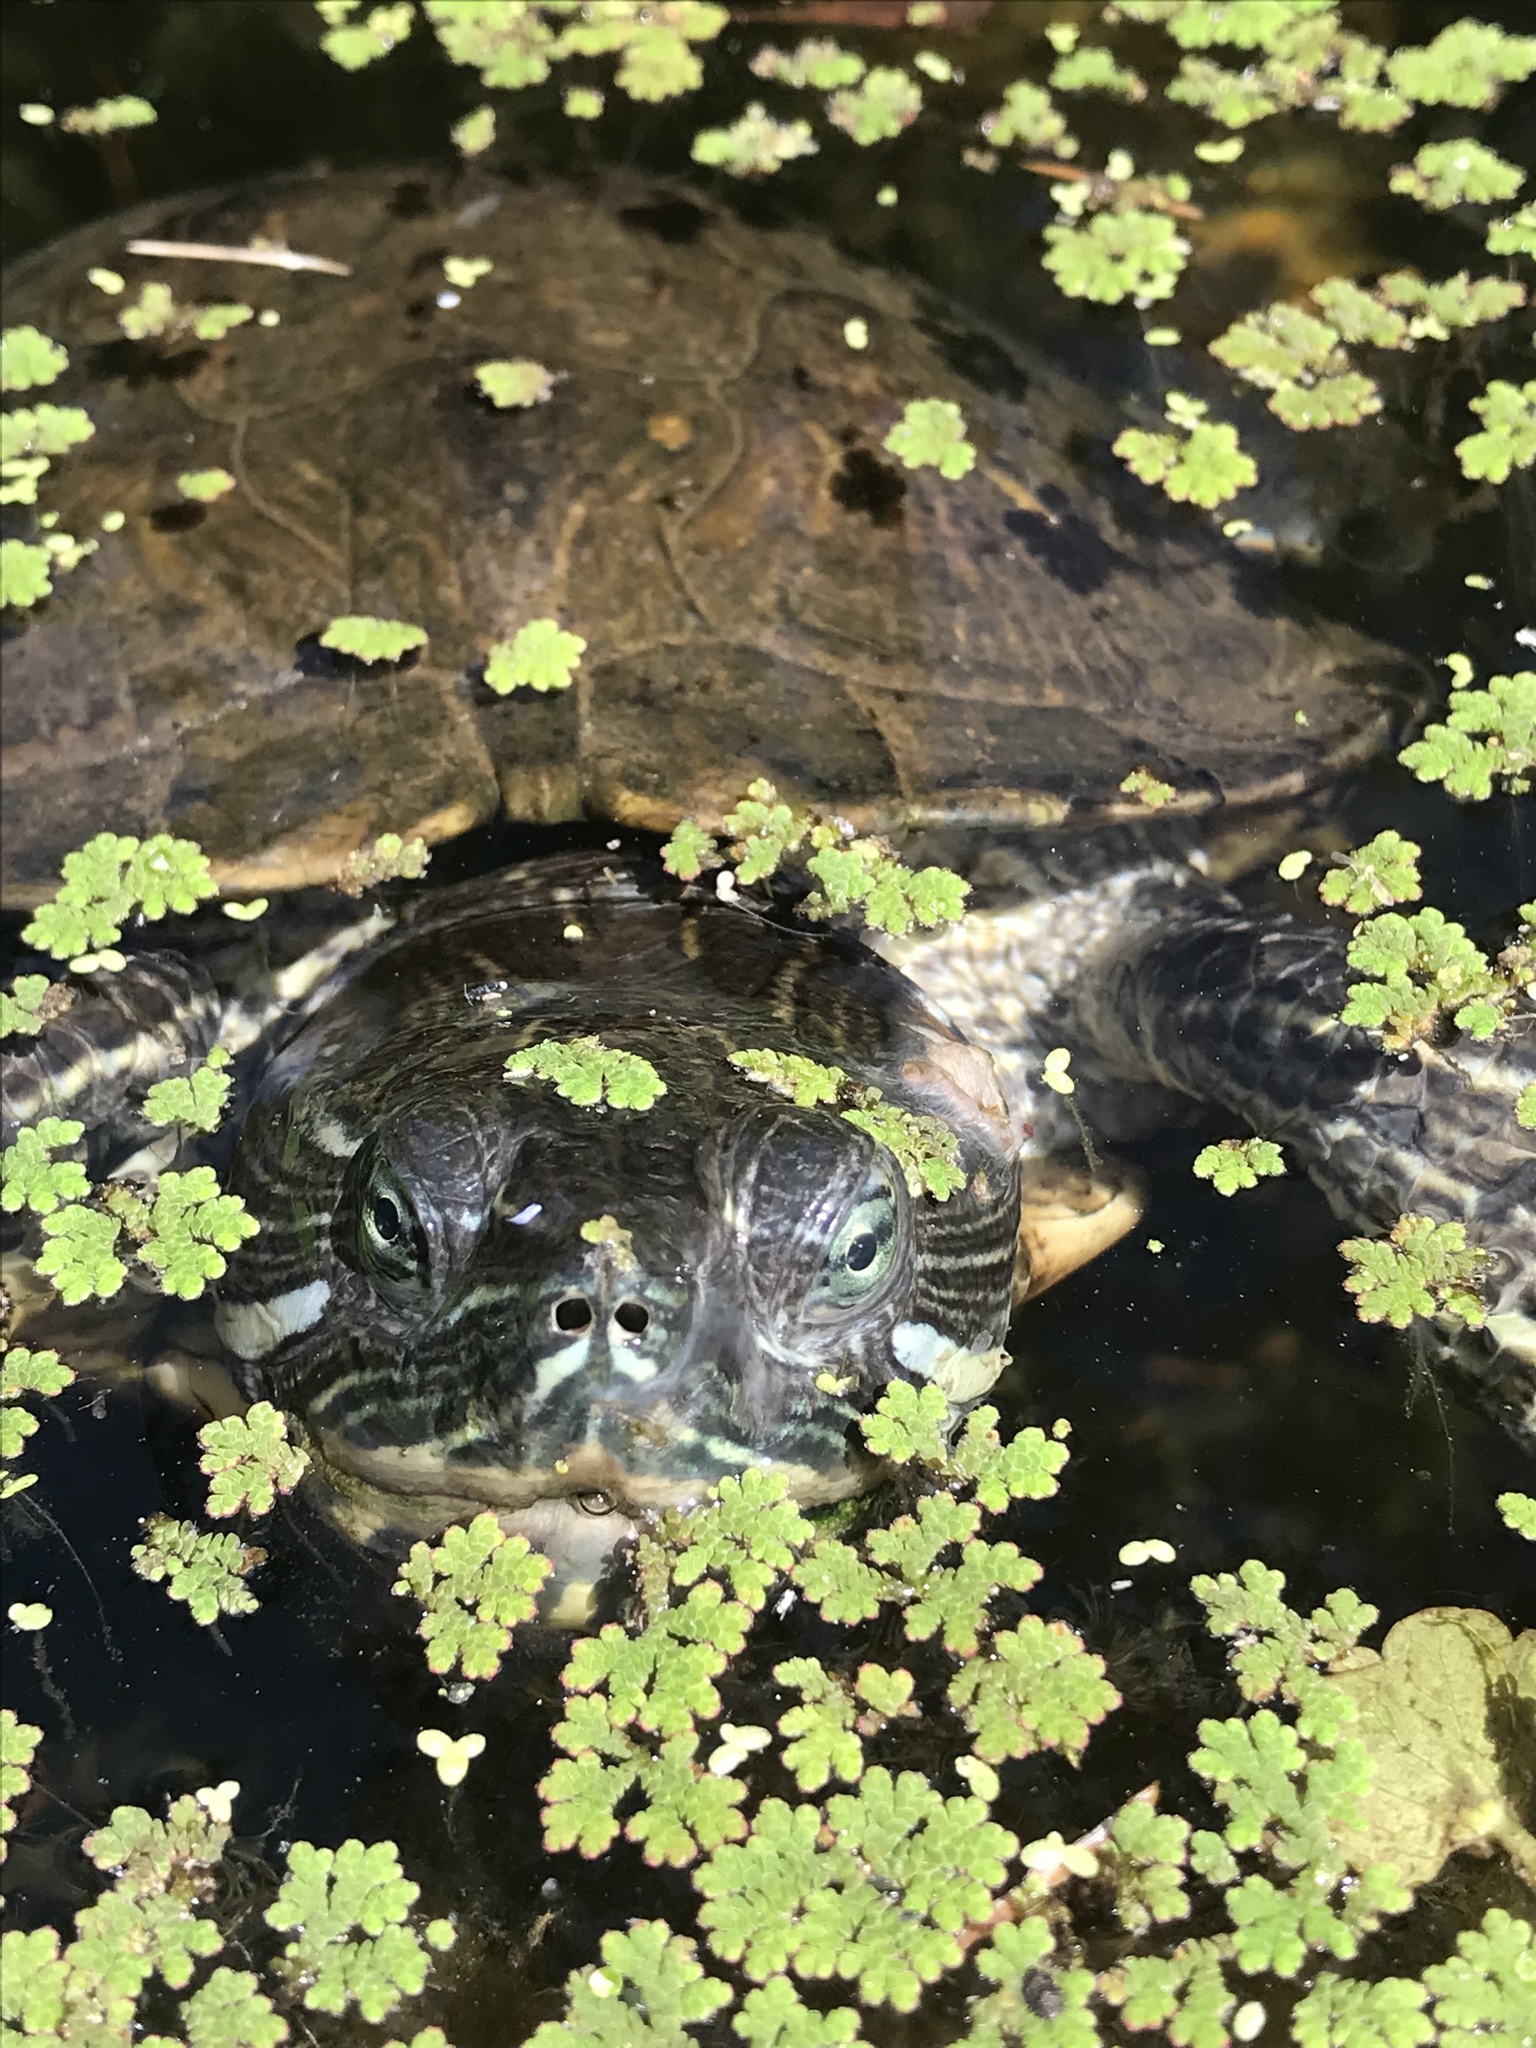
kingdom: Animalia
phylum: Chordata
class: Testudines
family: Emydidae
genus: Trachemys
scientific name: Trachemys scripta
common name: Slider
